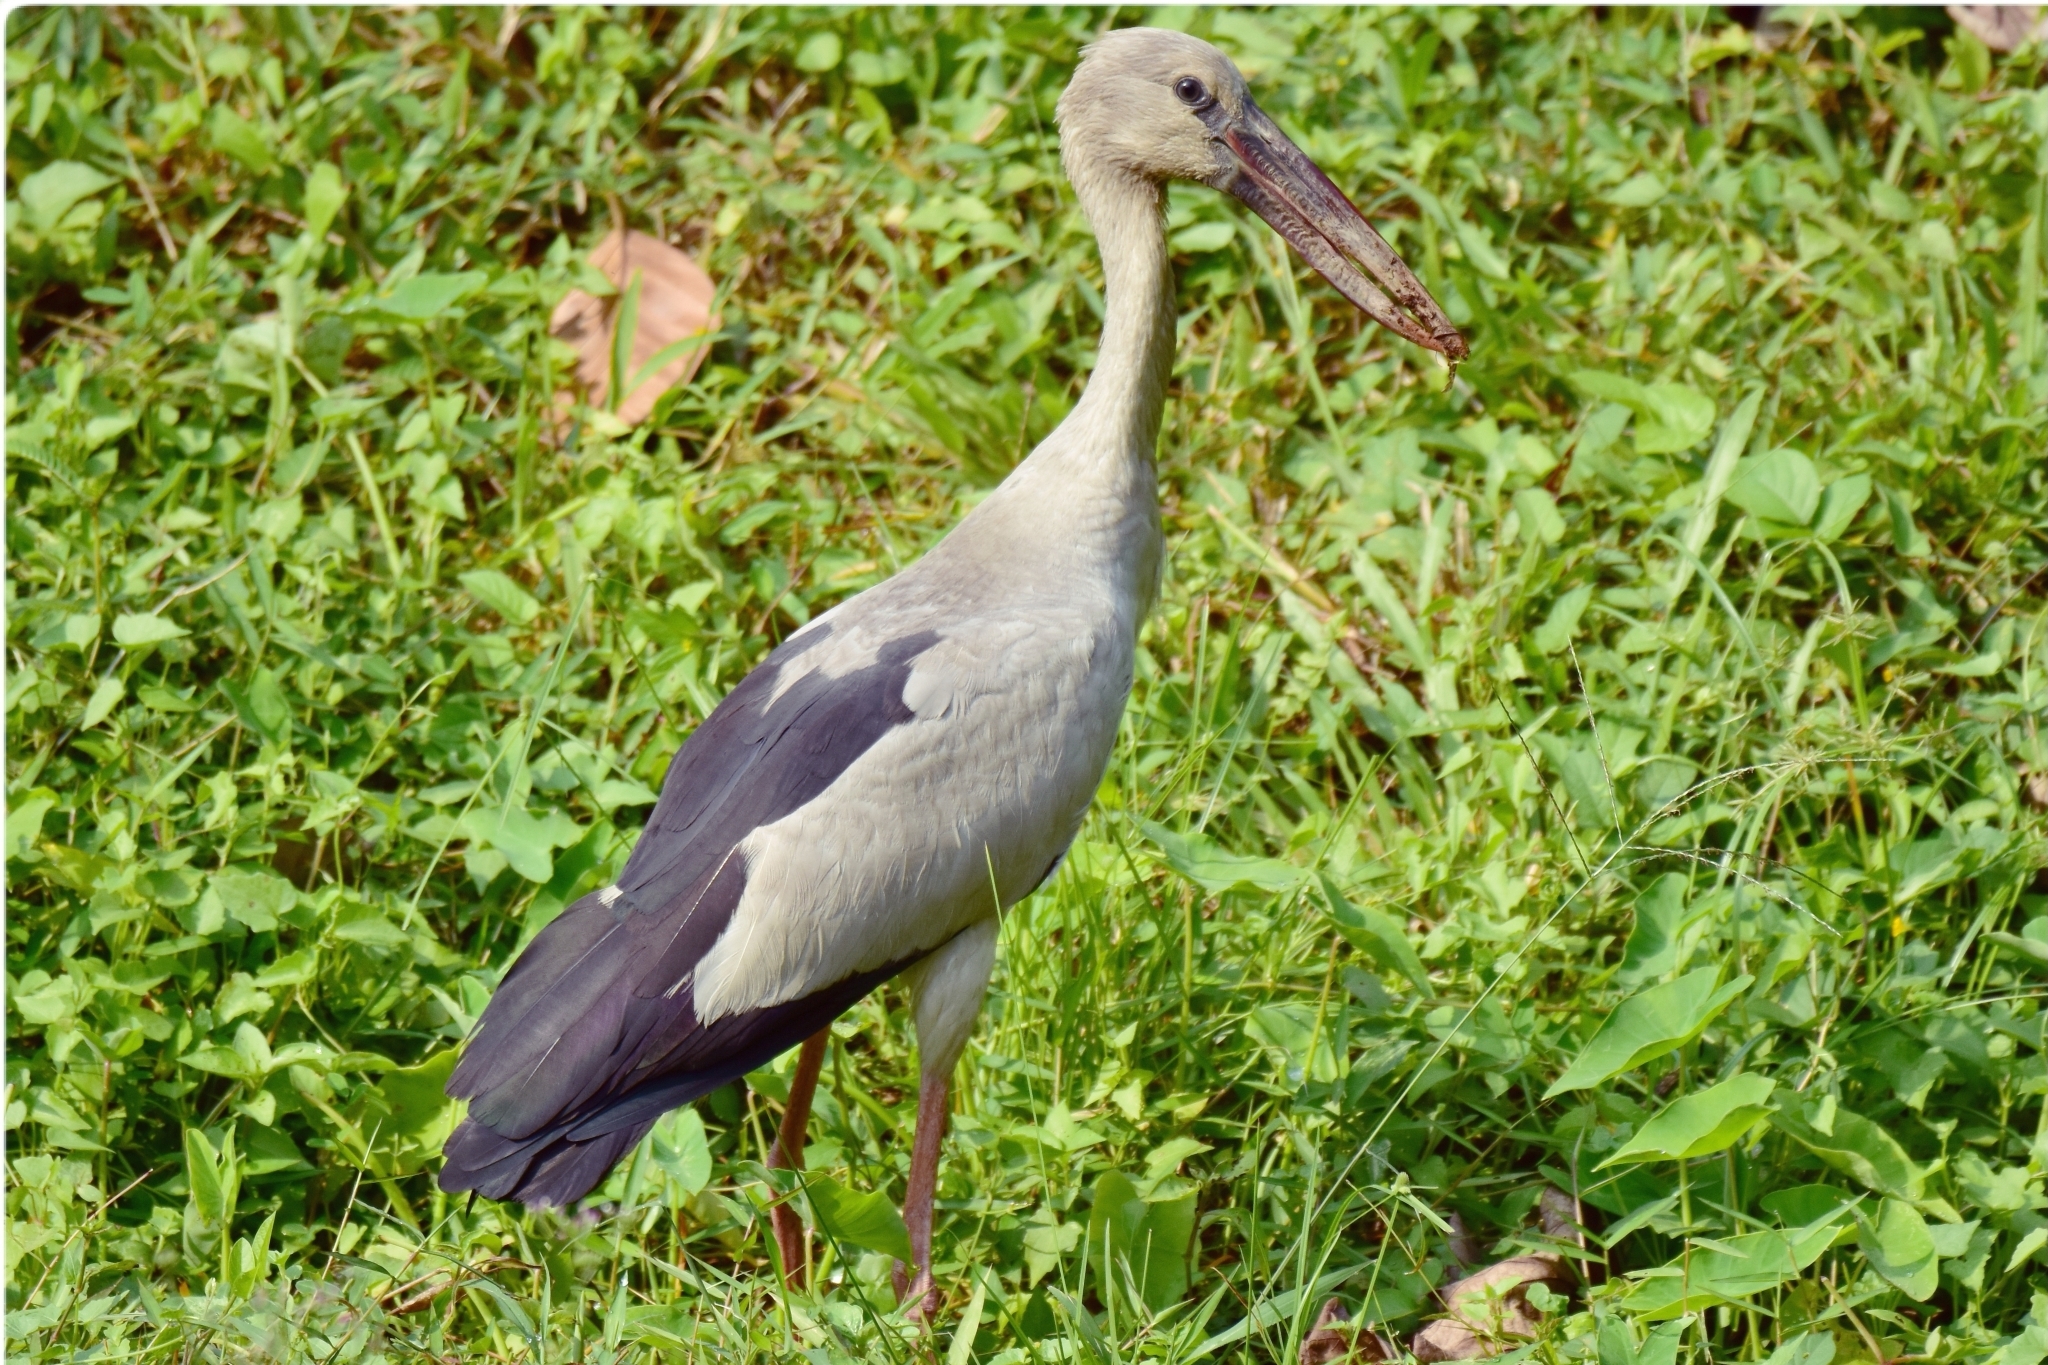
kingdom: Animalia
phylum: Chordata
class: Aves
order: Ciconiiformes
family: Ciconiidae
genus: Anastomus
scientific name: Anastomus oscitans
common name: Asian openbill
